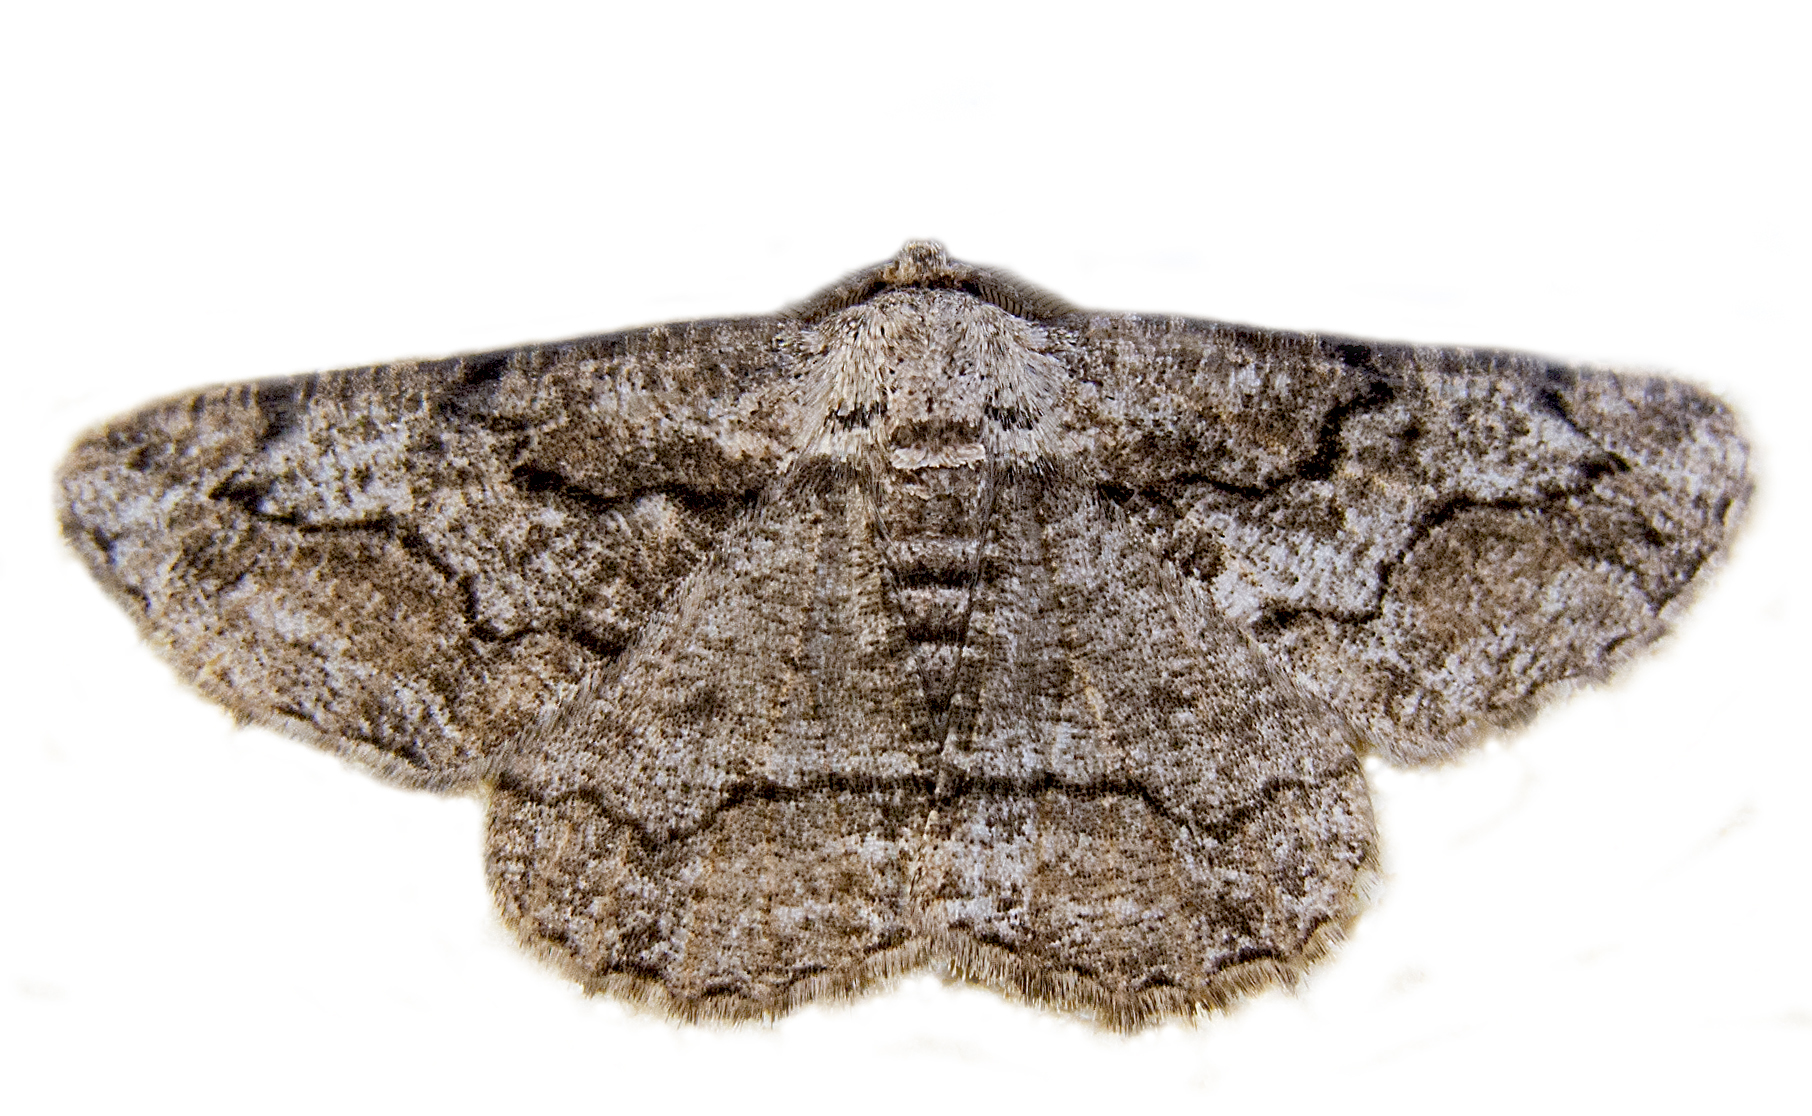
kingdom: Animalia
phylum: Arthropoda
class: Insecta
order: Lepidoptera
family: Geometridae
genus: Synopsia
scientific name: Synopsia sociaria
